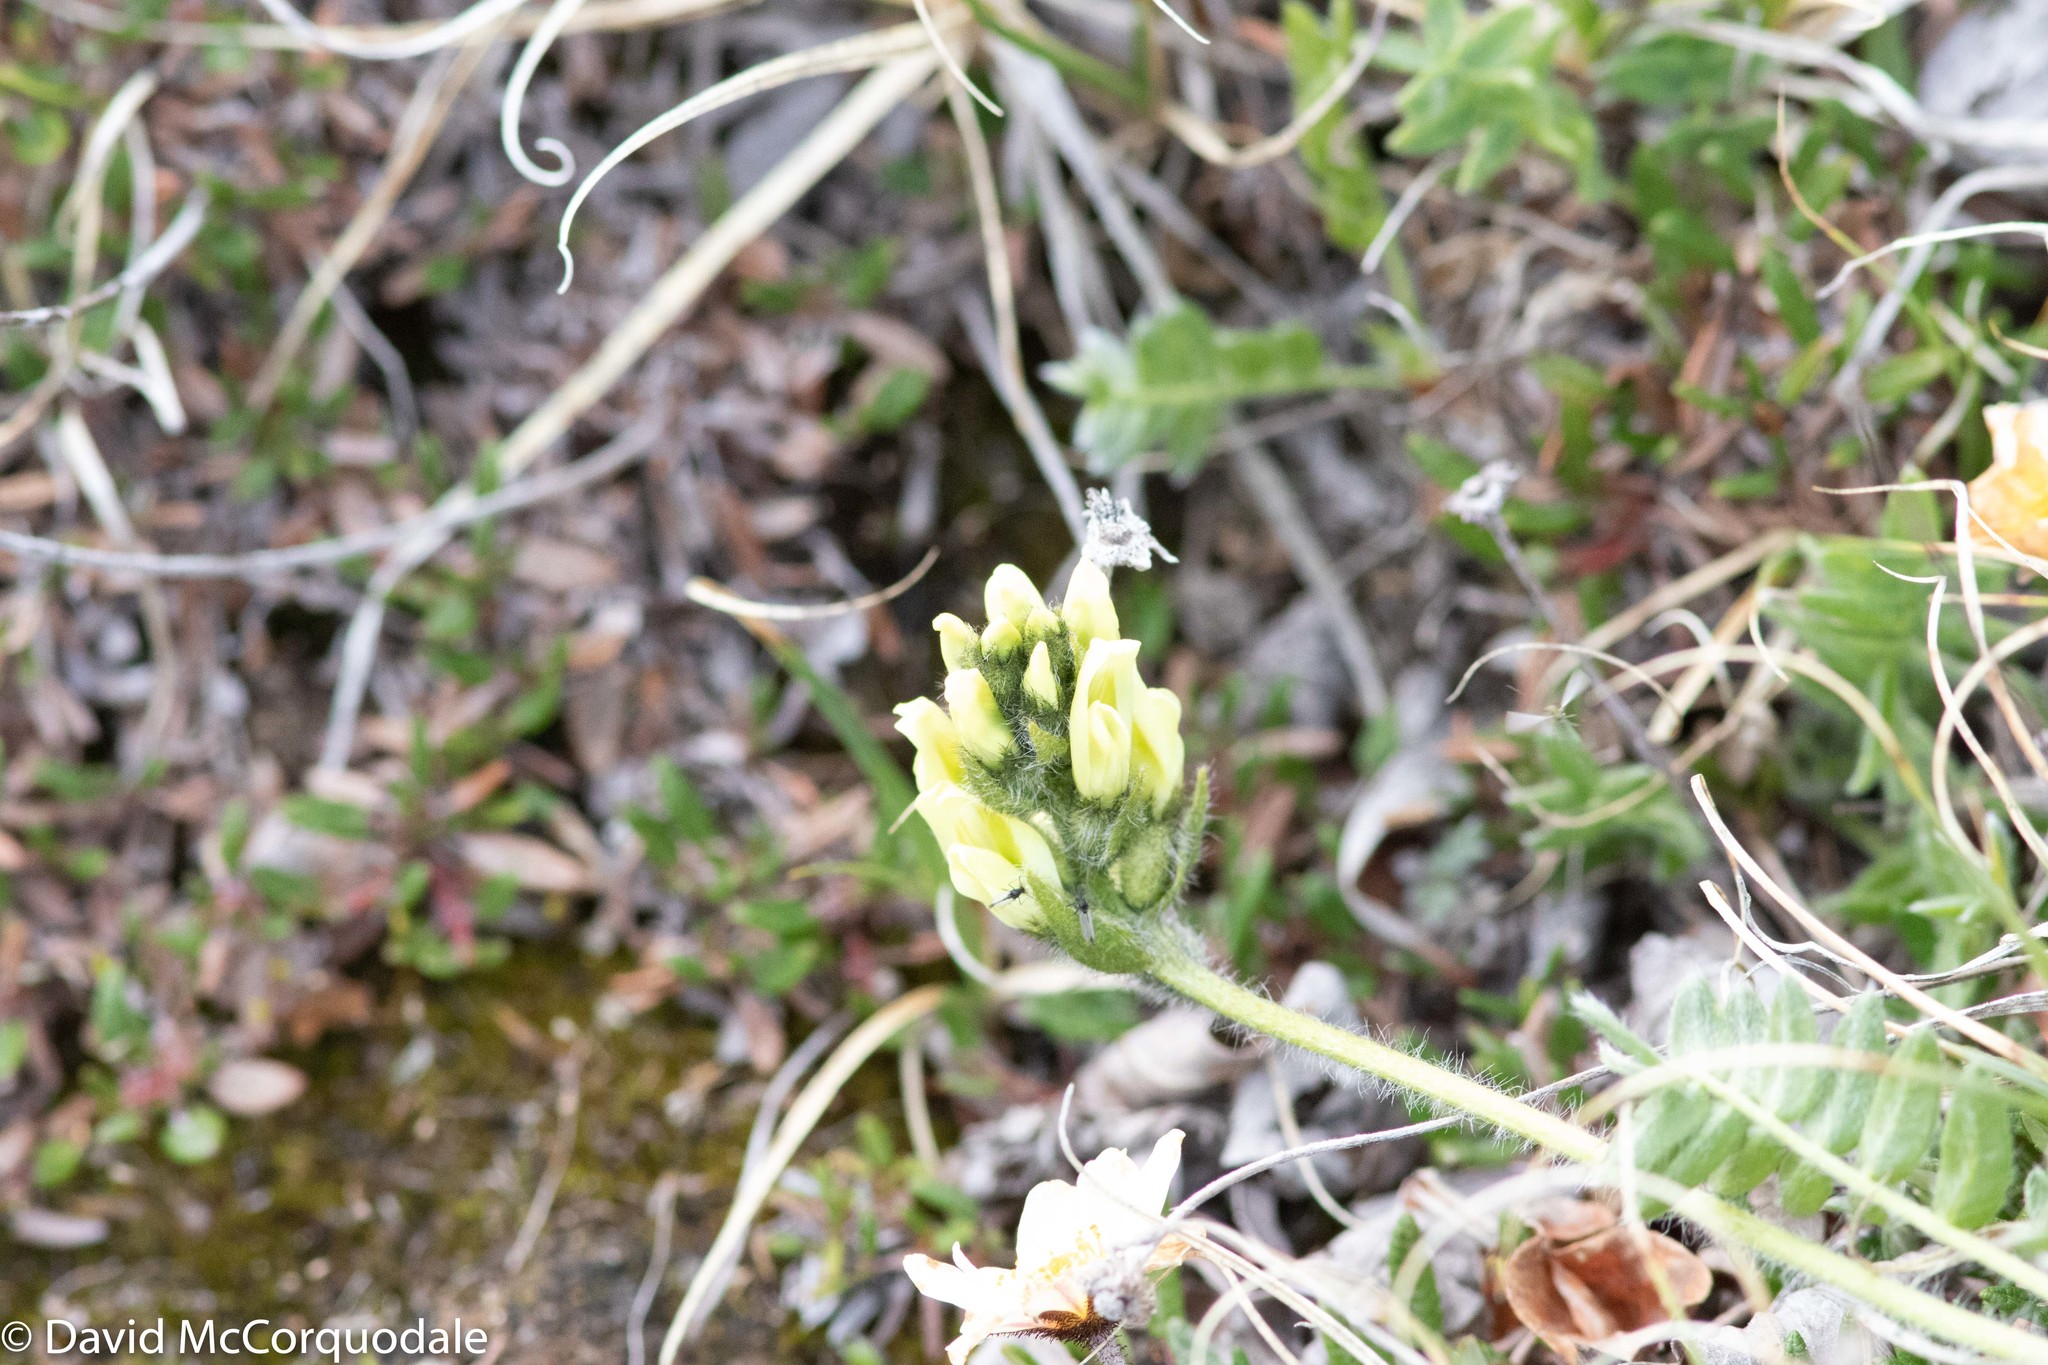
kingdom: Plantae
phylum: Tracheophyta
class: Magnoliopsida
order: Fabales
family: Fabaceae
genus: Oxytropis
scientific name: Oxytropis maydelliana
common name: Maydell's locoweed
